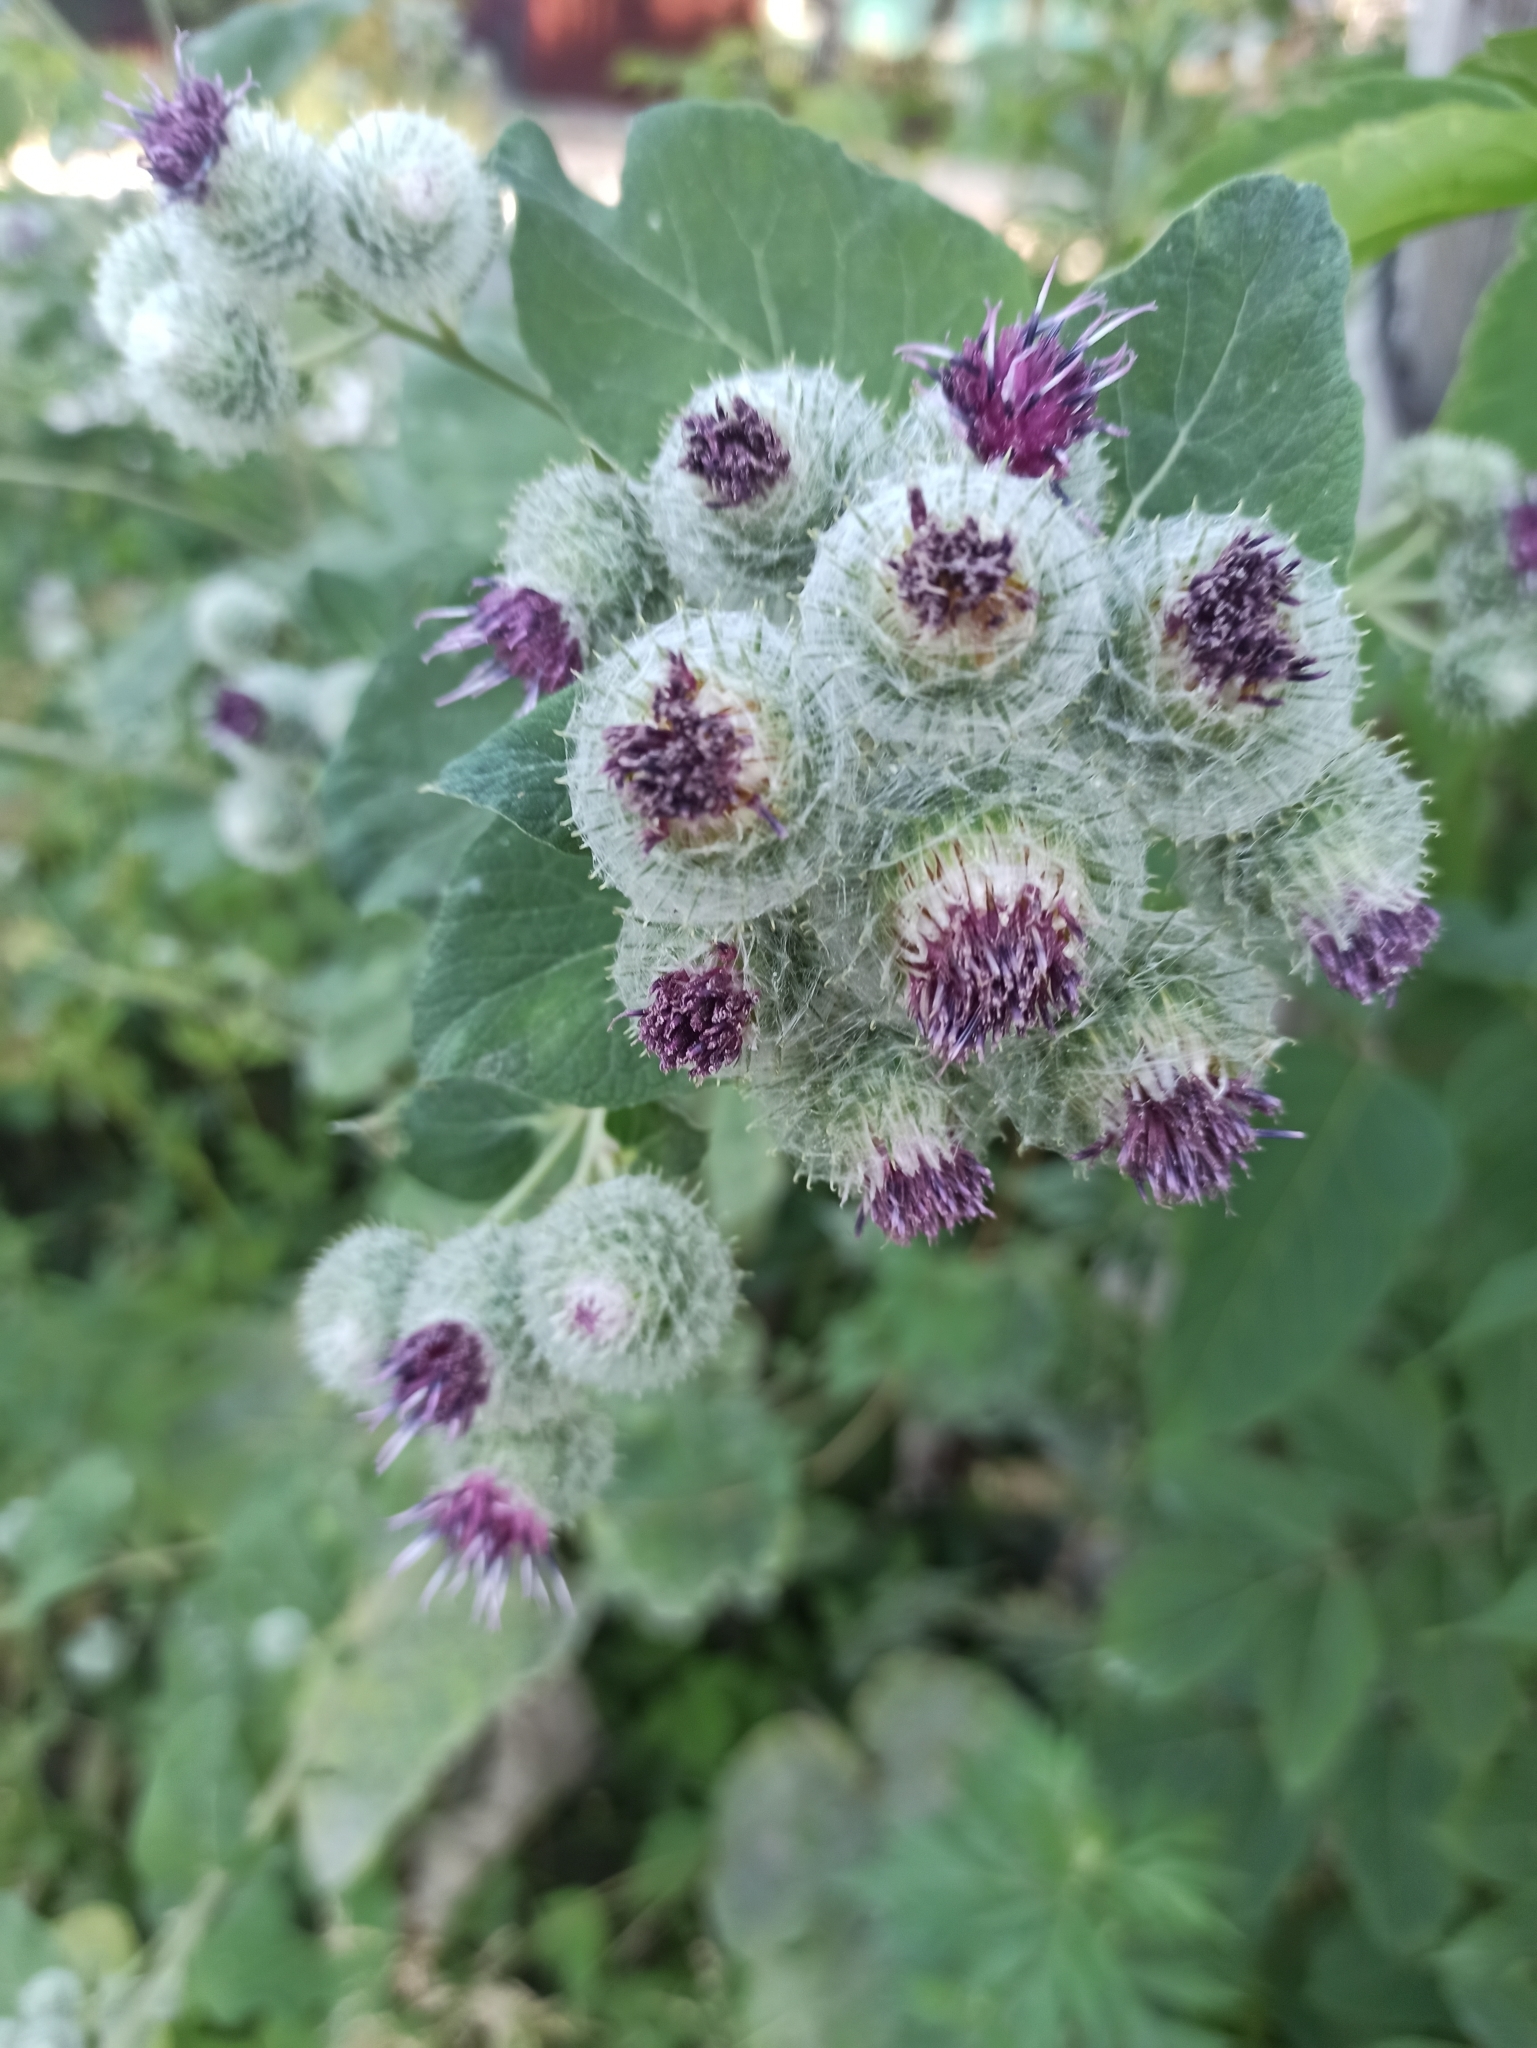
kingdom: Plantae
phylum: Tracheophyta
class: Magnoliopsida
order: Asterales
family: Asteraceae
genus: Arctium
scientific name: Arctium tomentosum
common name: Woolly burdock
